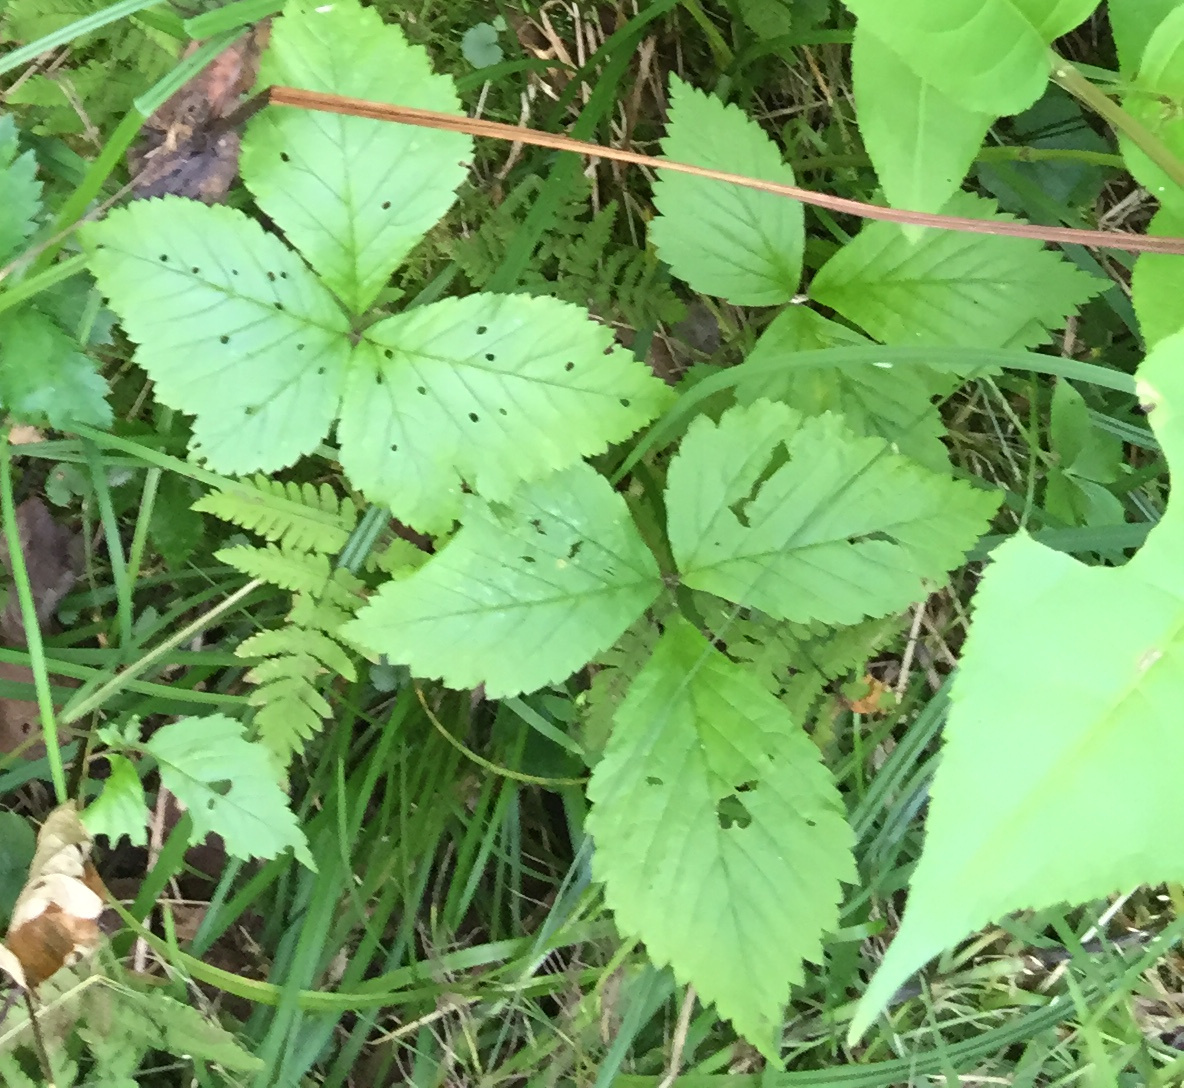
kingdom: Plantae
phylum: Tracheophyta
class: Magnoliopsida
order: Rosales
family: Rosaceae
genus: Rubus
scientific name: Rubus pubescens
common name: Dwarf raspberry
